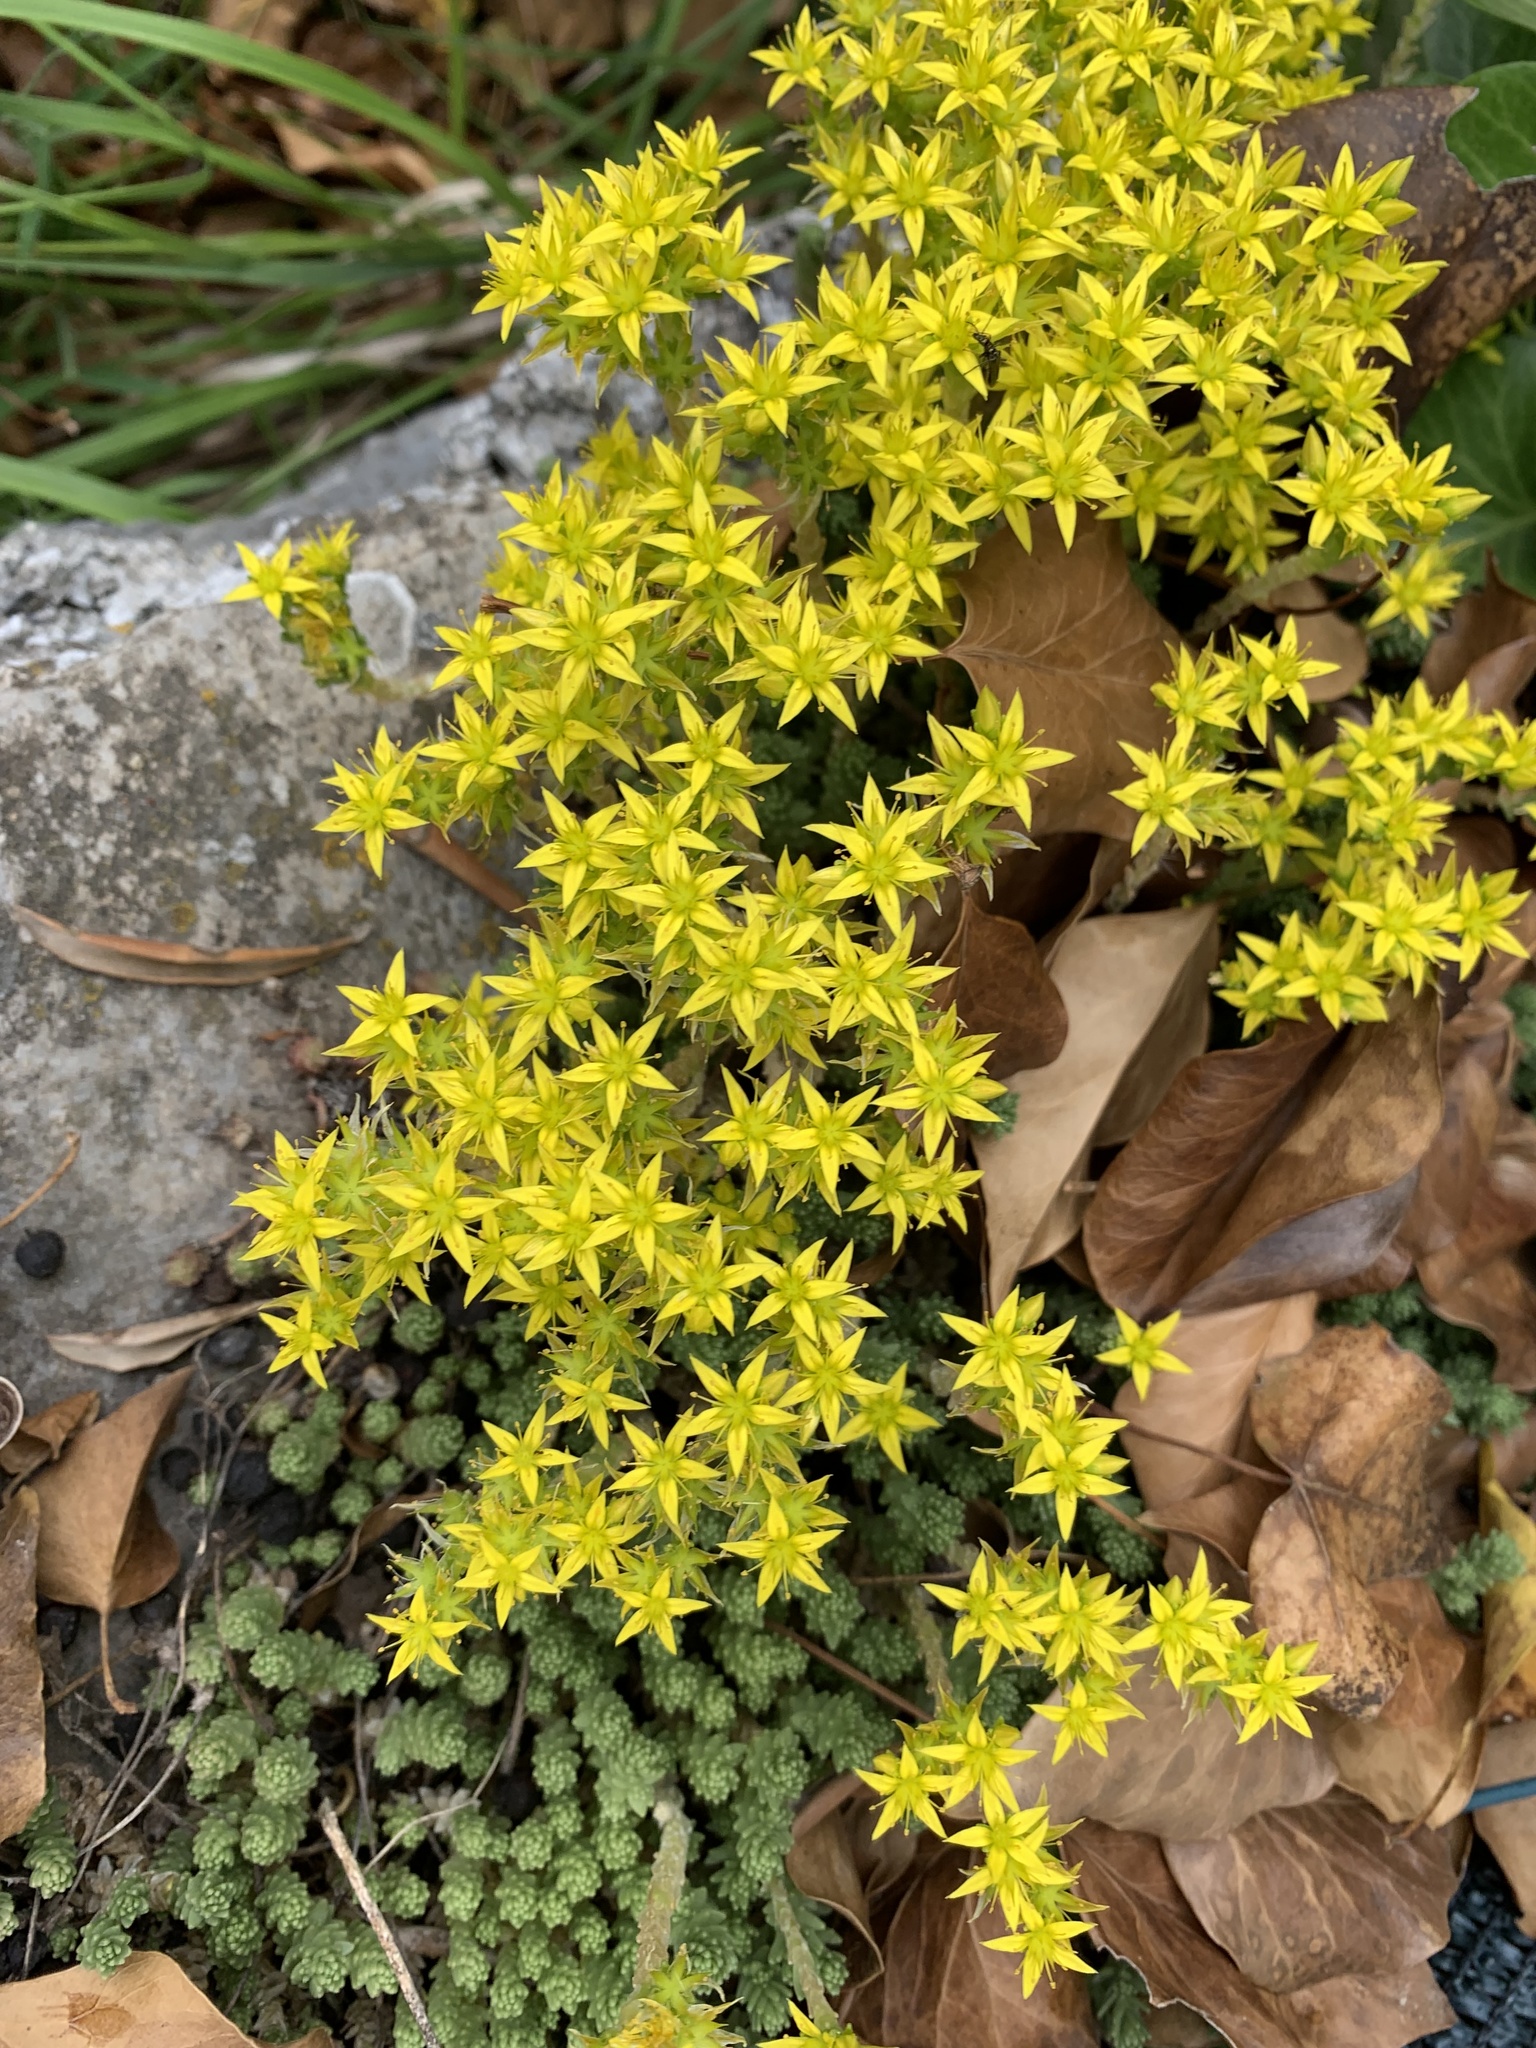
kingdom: Plantae
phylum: Tracheophyta
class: Magnoliopsida
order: Saxifragales
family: Crassulaceae
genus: Sedum
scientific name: Sedum acre
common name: Biting stonecrop
